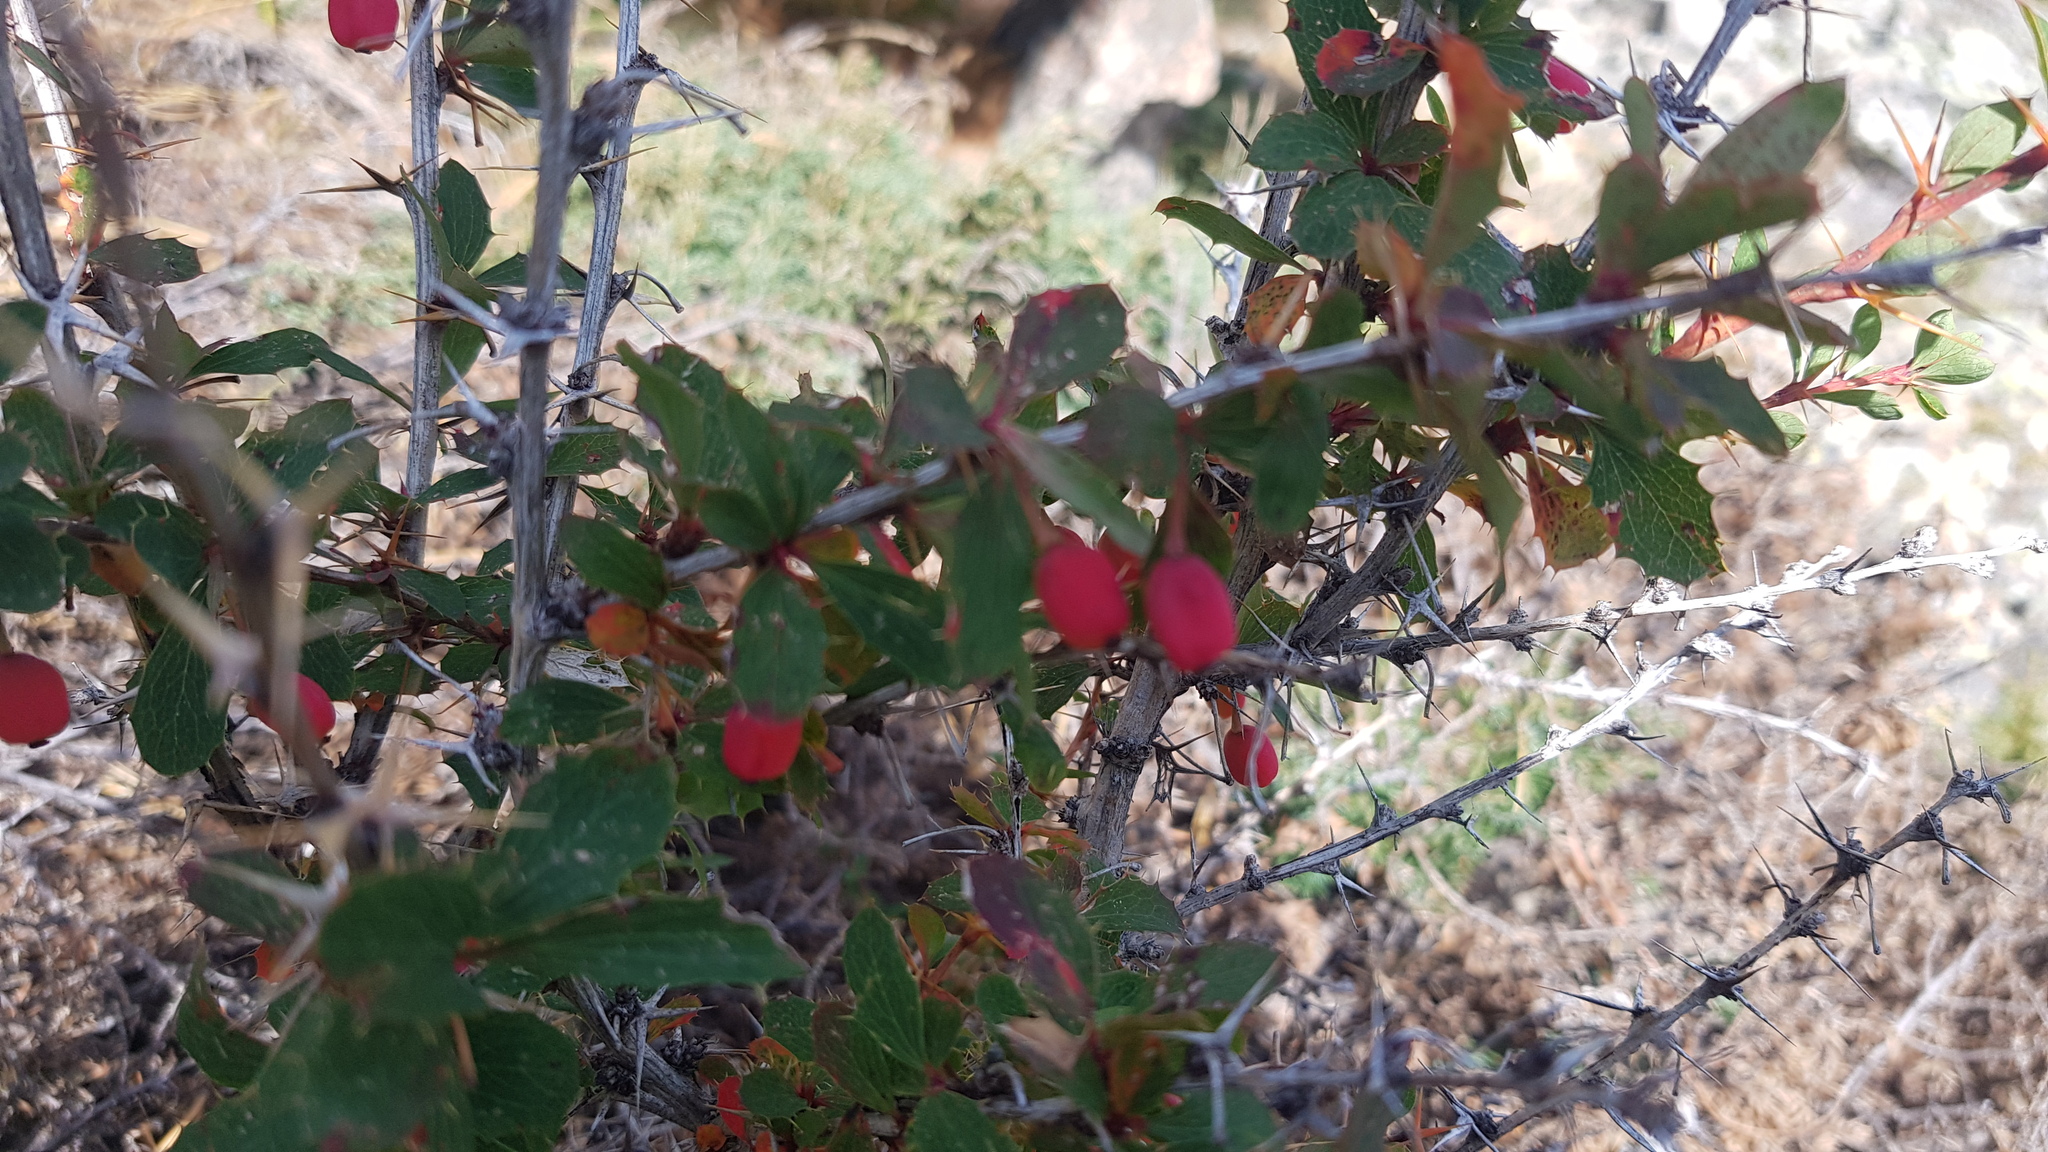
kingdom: Plantae
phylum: Tracheophyta
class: Magnoliopsida
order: Ranunculales
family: Berberidaceae
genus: Berberis
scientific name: Berberis sibirica
